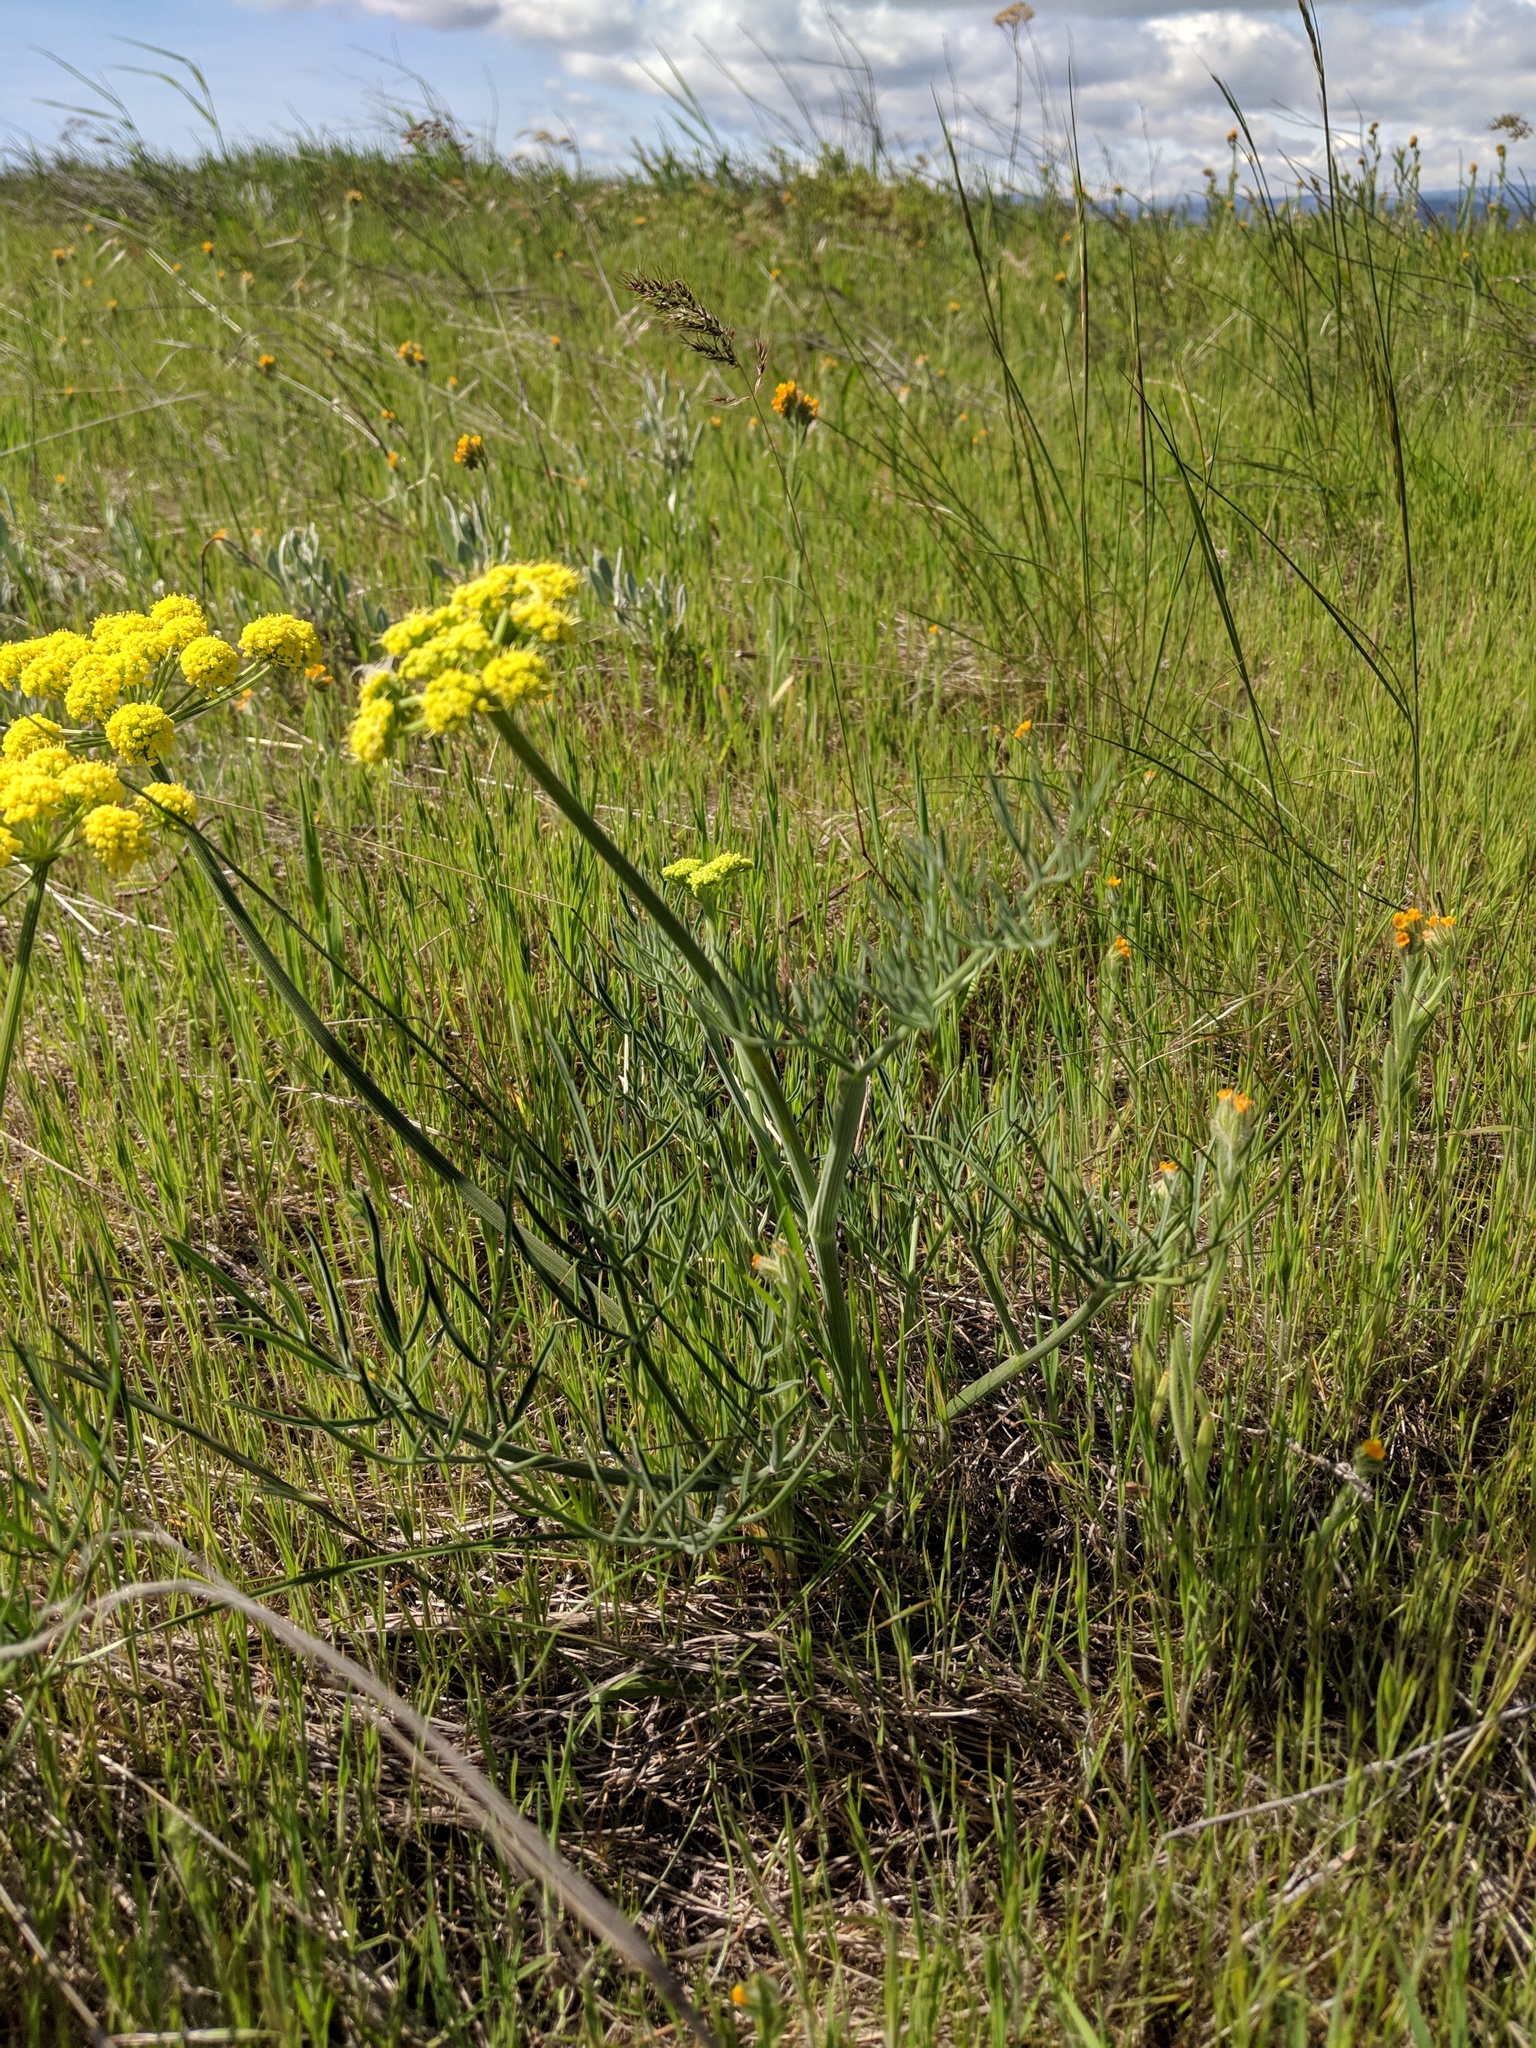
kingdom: Plantae
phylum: Tracheophyta
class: Magnoliopsida
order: Apiales
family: Apiaceae
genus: Lomatium
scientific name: Lomatium triternatum
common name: Ternate lomatium
